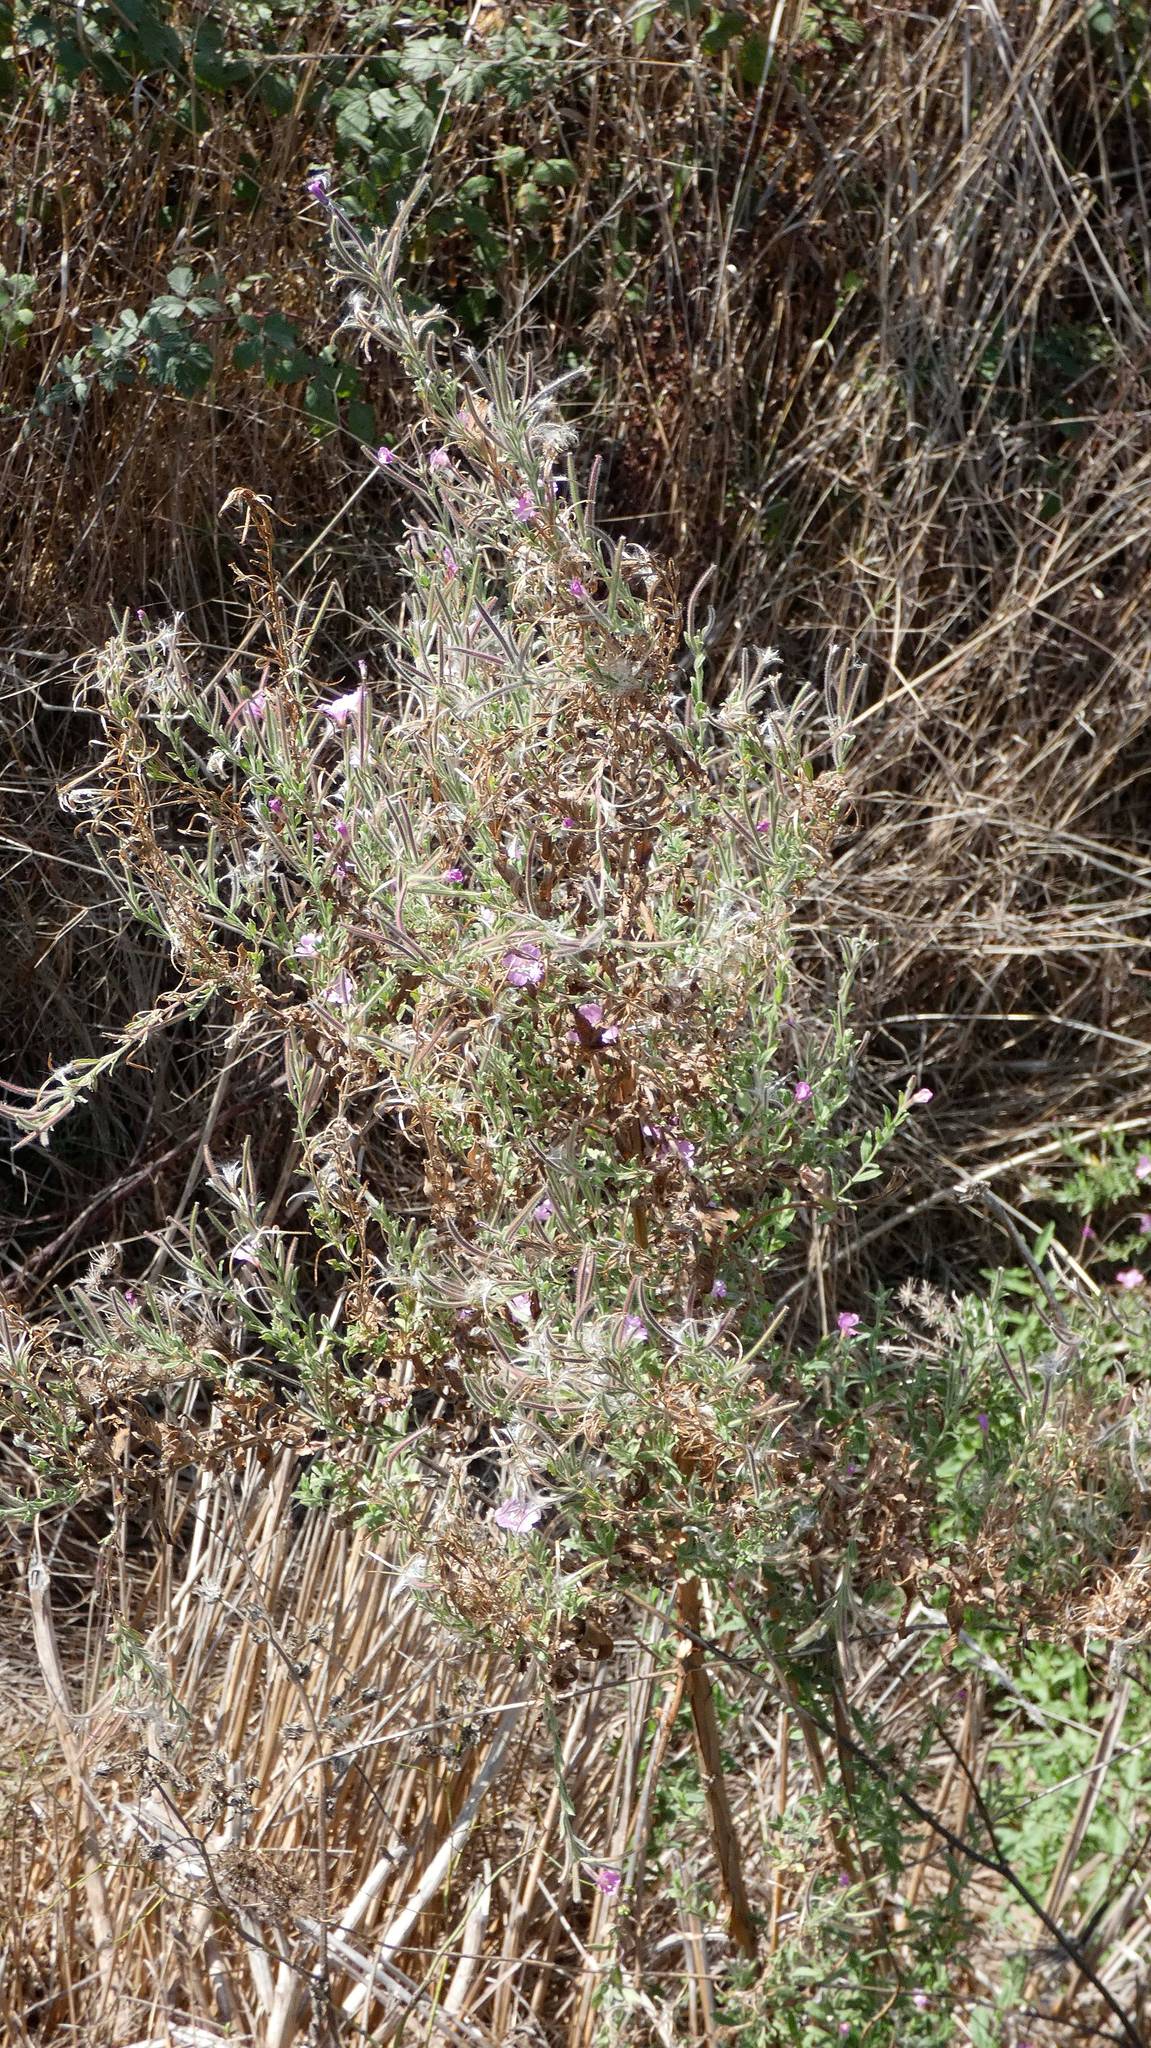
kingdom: Plantae
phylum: Tracheophyta
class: Magnoliopsida
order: Myrtales
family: Onagraceae
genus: Epilobium
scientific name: Epilobium hirsutum
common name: Great willowherb
